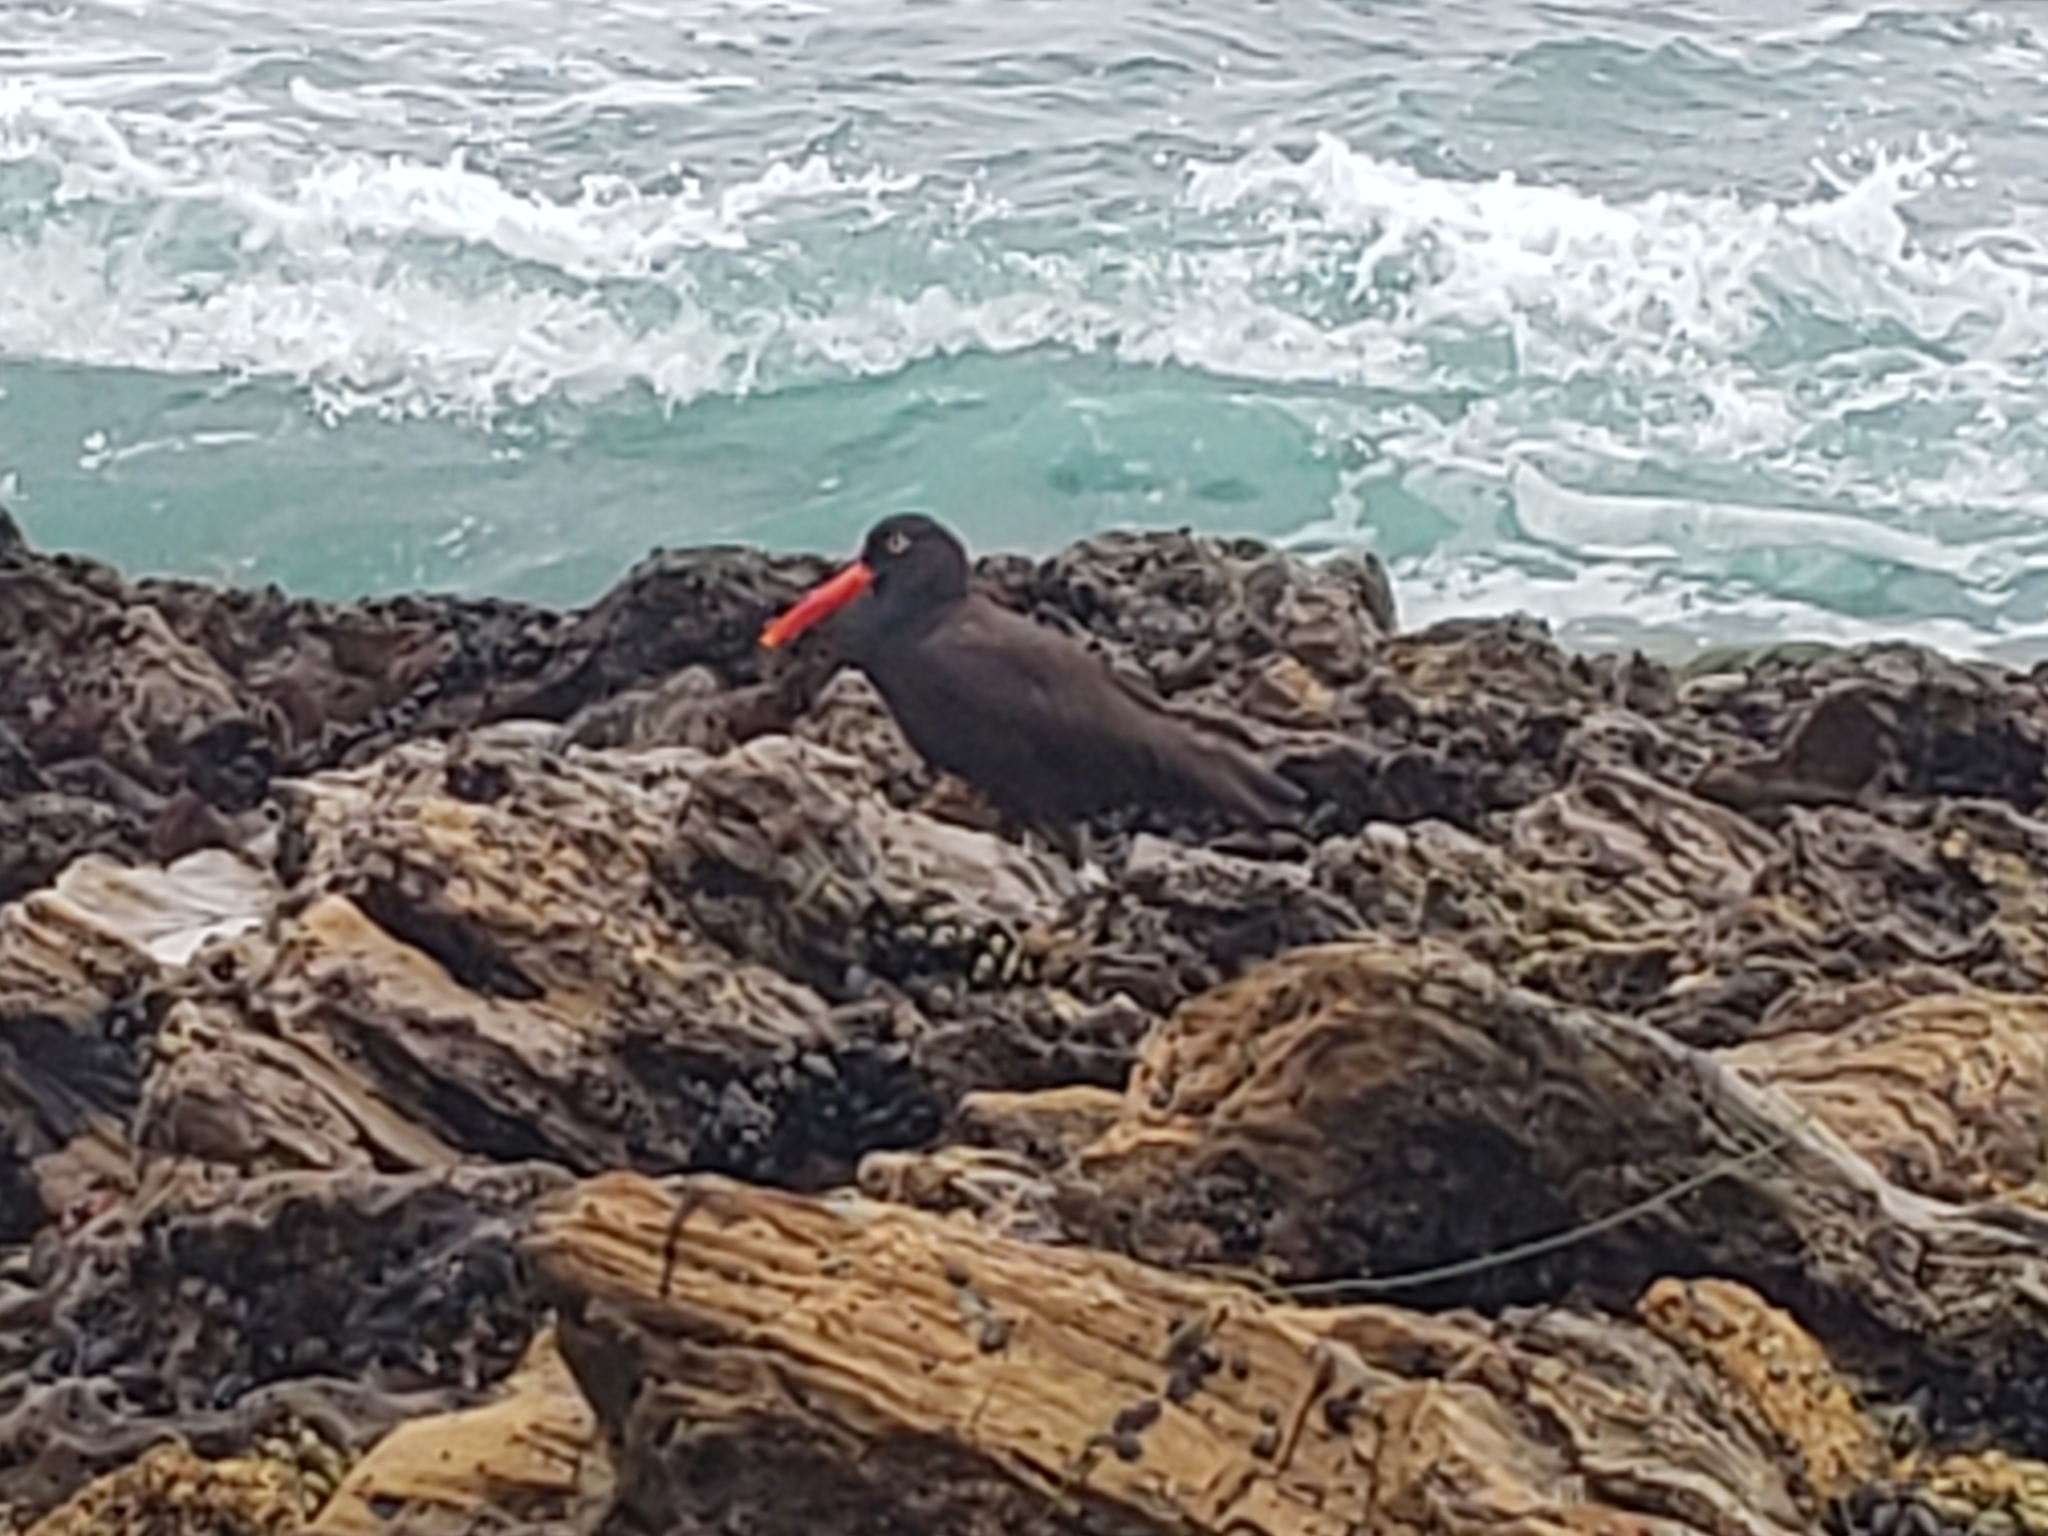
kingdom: Animalia
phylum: Chordata
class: Aves
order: Charadriiformes
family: Haematopodidae
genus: Haematopus
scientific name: Haematopus bachmani
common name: Black oystercatcher
